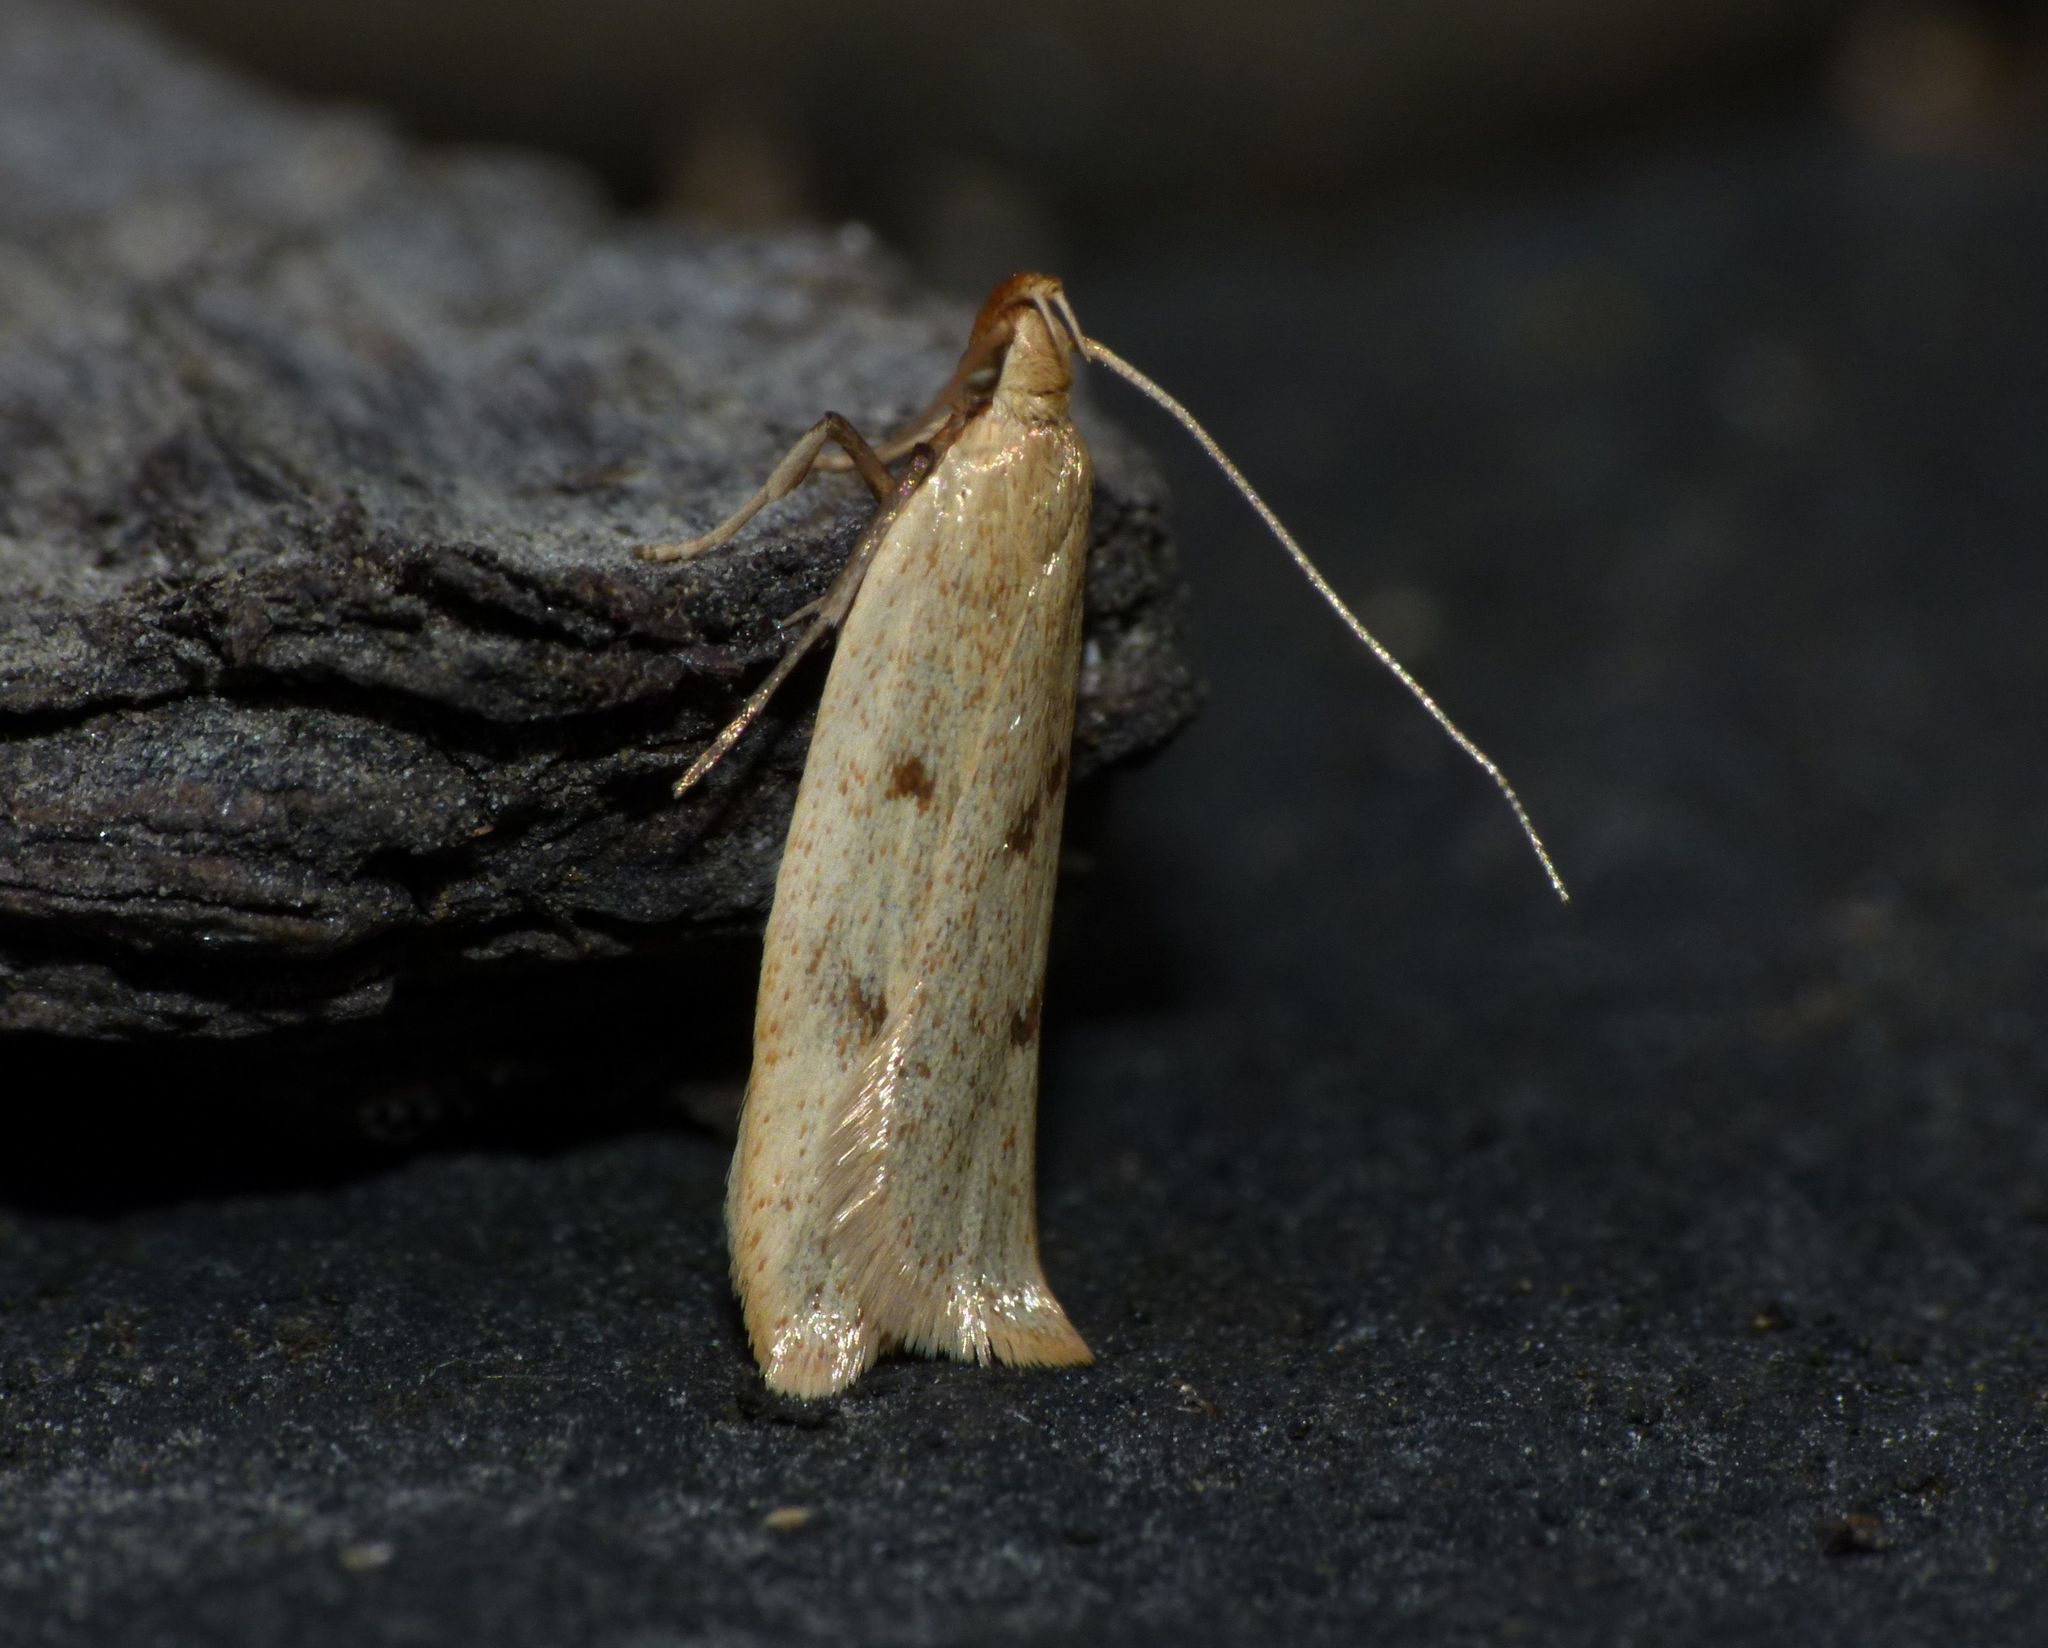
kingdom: Animalia
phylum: Arthropoda
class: Insecta
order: Lepidoptera
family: Oecophoridae
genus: Gymnobathra
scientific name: Gymnobathra sarcoxantha
